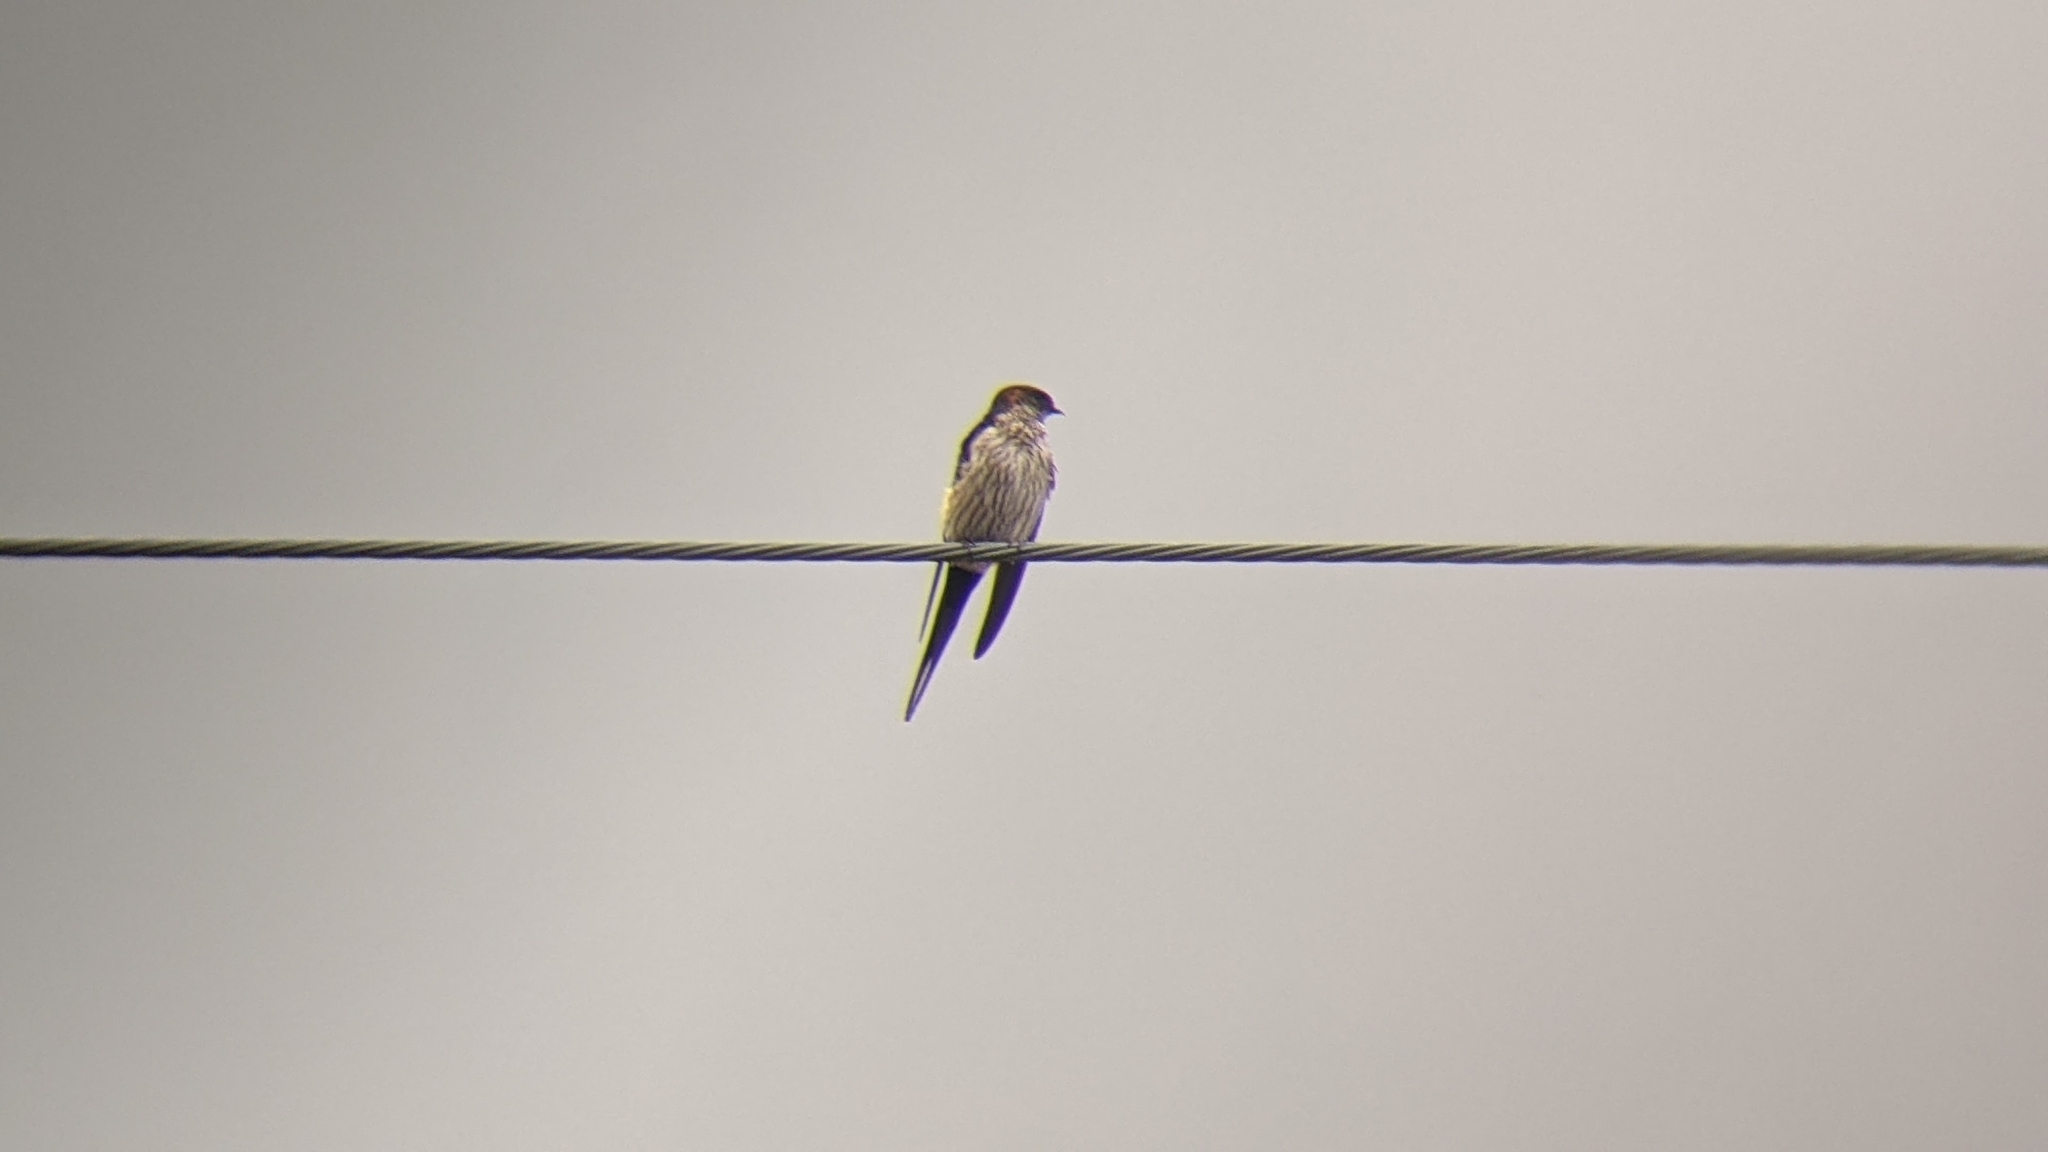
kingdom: Animalia
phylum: Chordata
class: Aves
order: Passeriformes
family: Hirundinidae
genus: Cecropis
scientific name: Cecropis striolata
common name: Striated swallow
